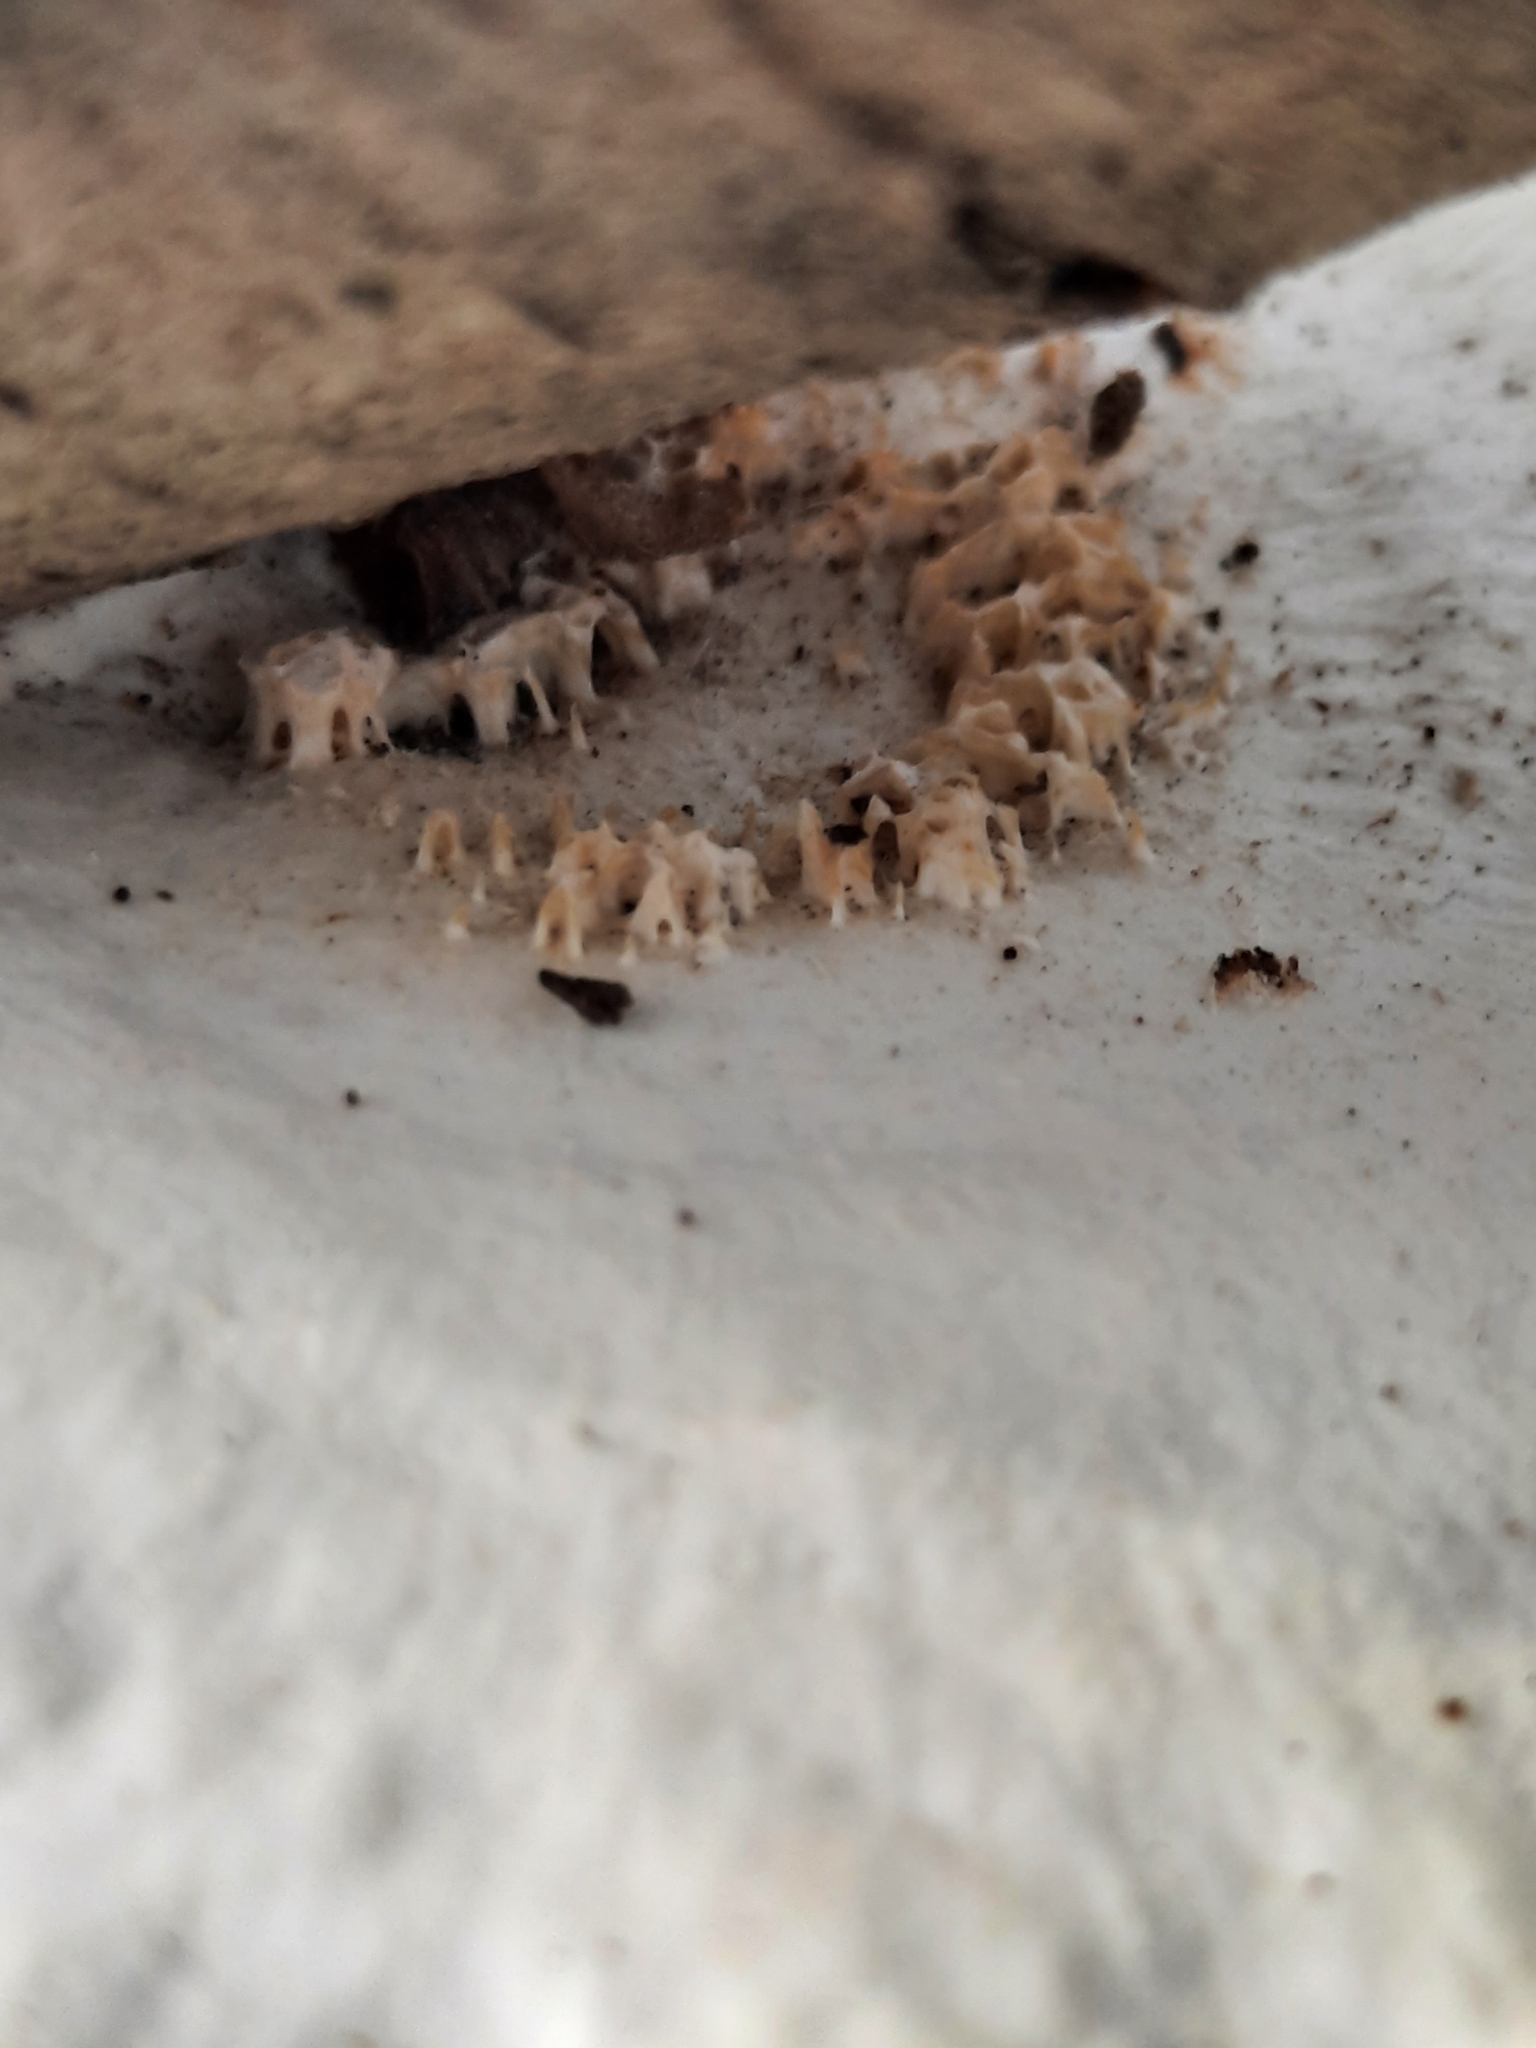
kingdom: Fungi
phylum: Basidiomycota
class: Agaricomycetes
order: Polyporales
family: Polyporaceae
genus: Neofavolus
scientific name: Neofavolus
